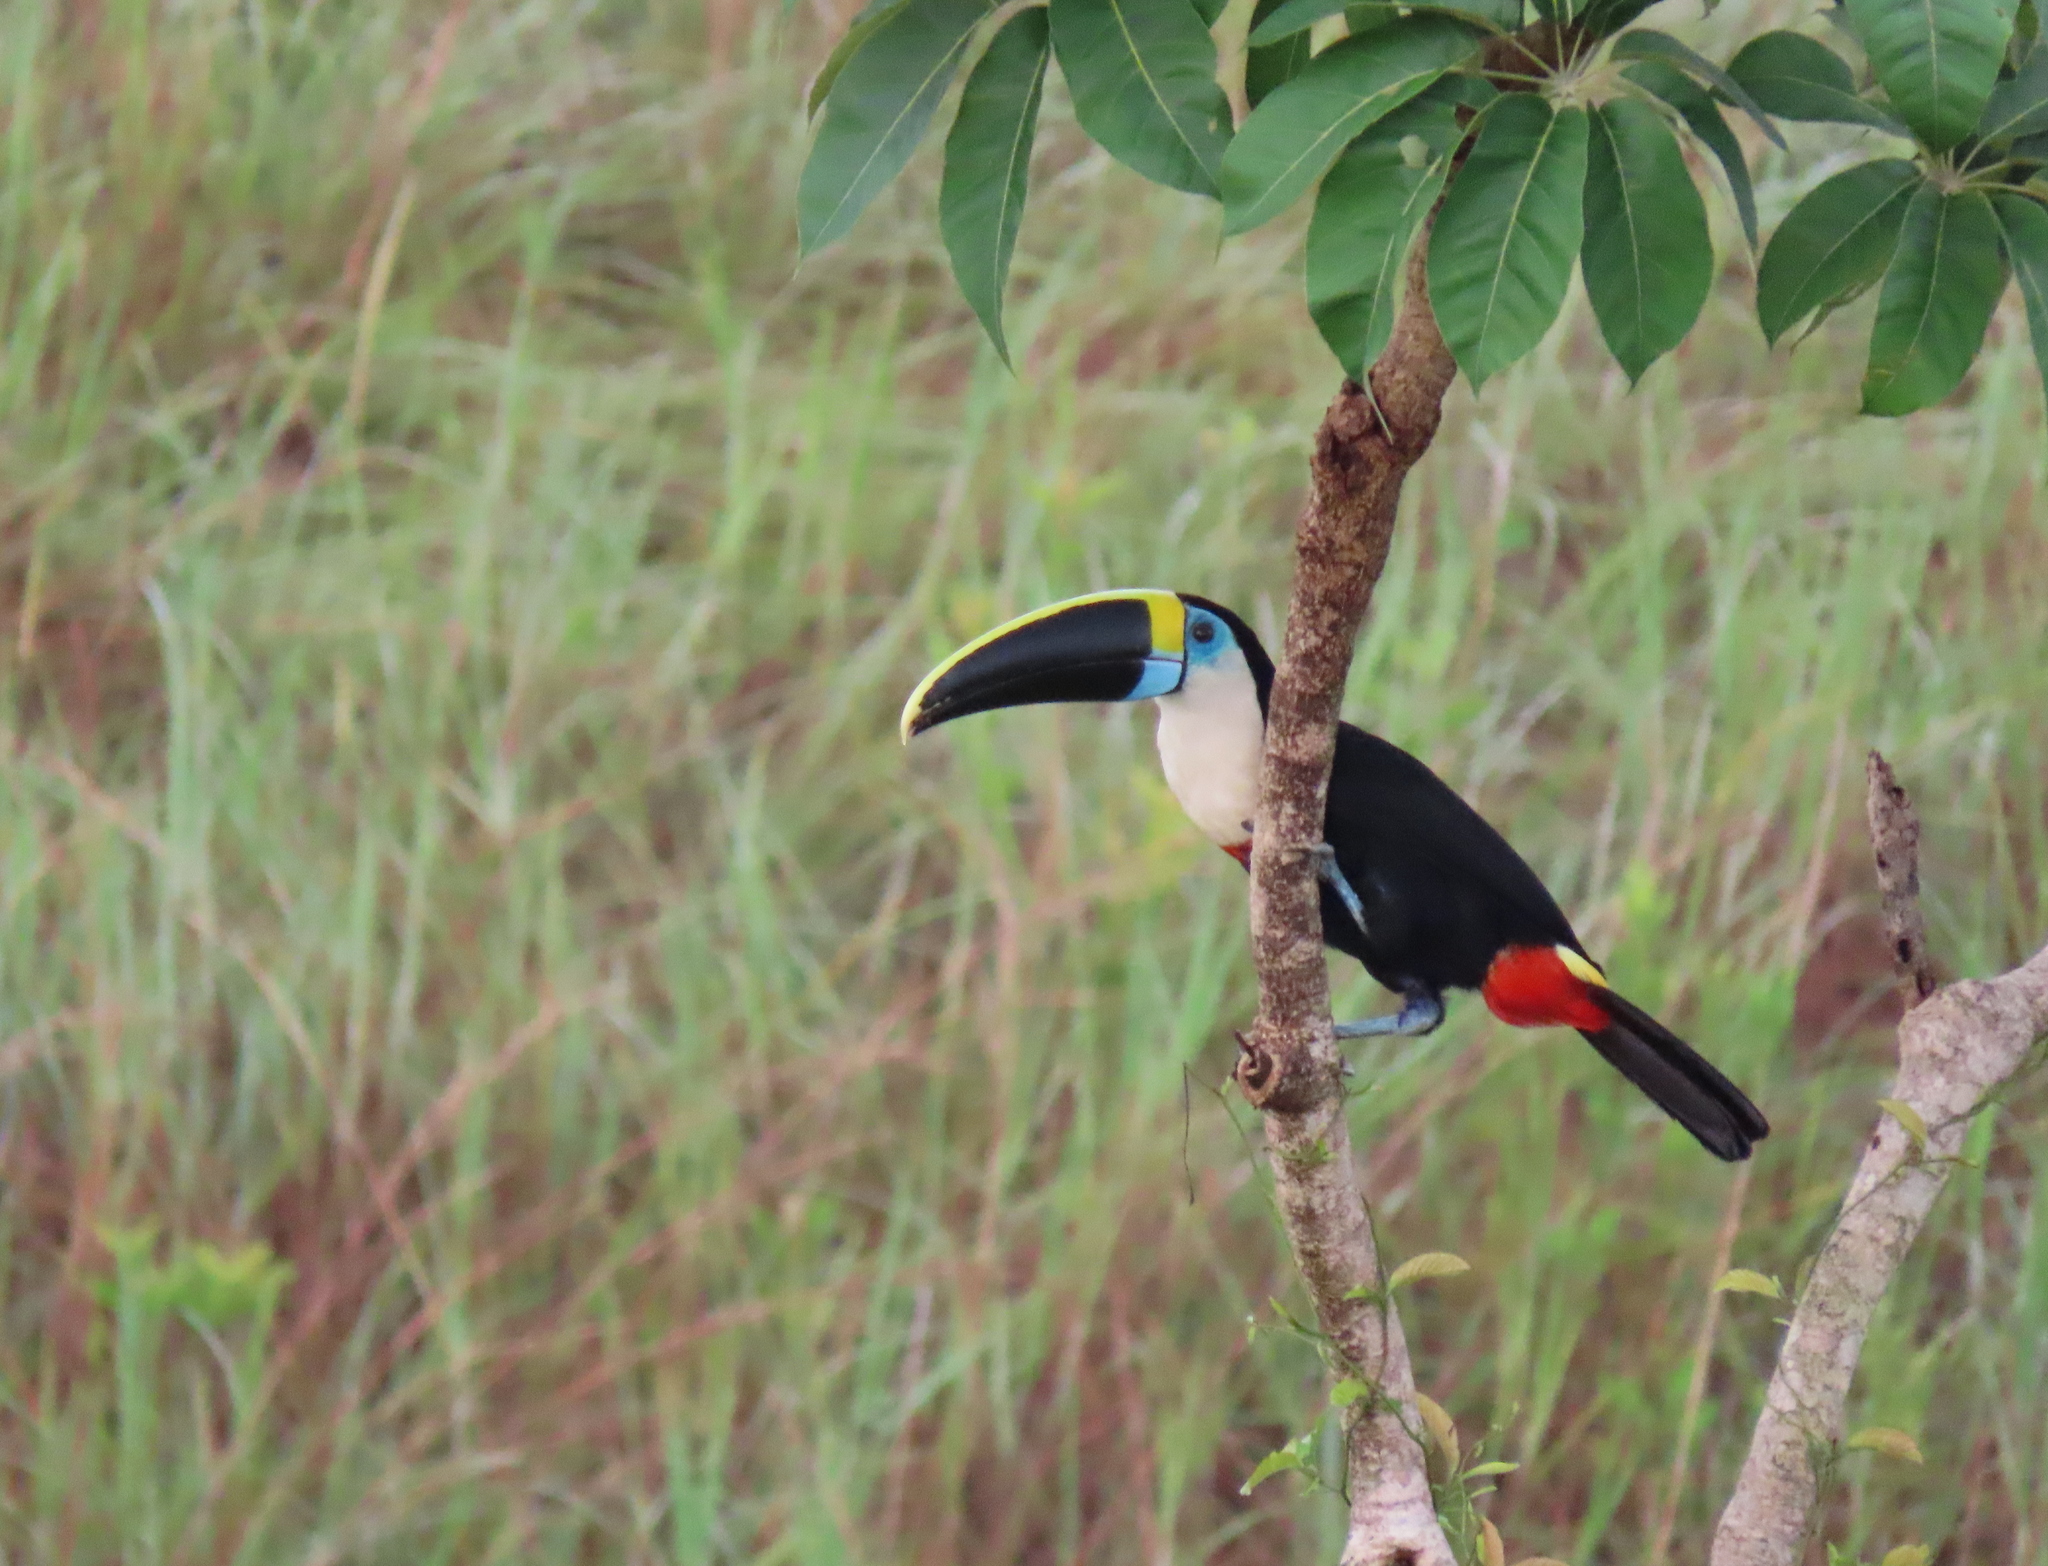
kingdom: Animalia
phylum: Chordata
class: Aves
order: Piciformes
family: Ramphastidae
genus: Ramphastos
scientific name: Ramphastos tucanus
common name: White-throated toucan
